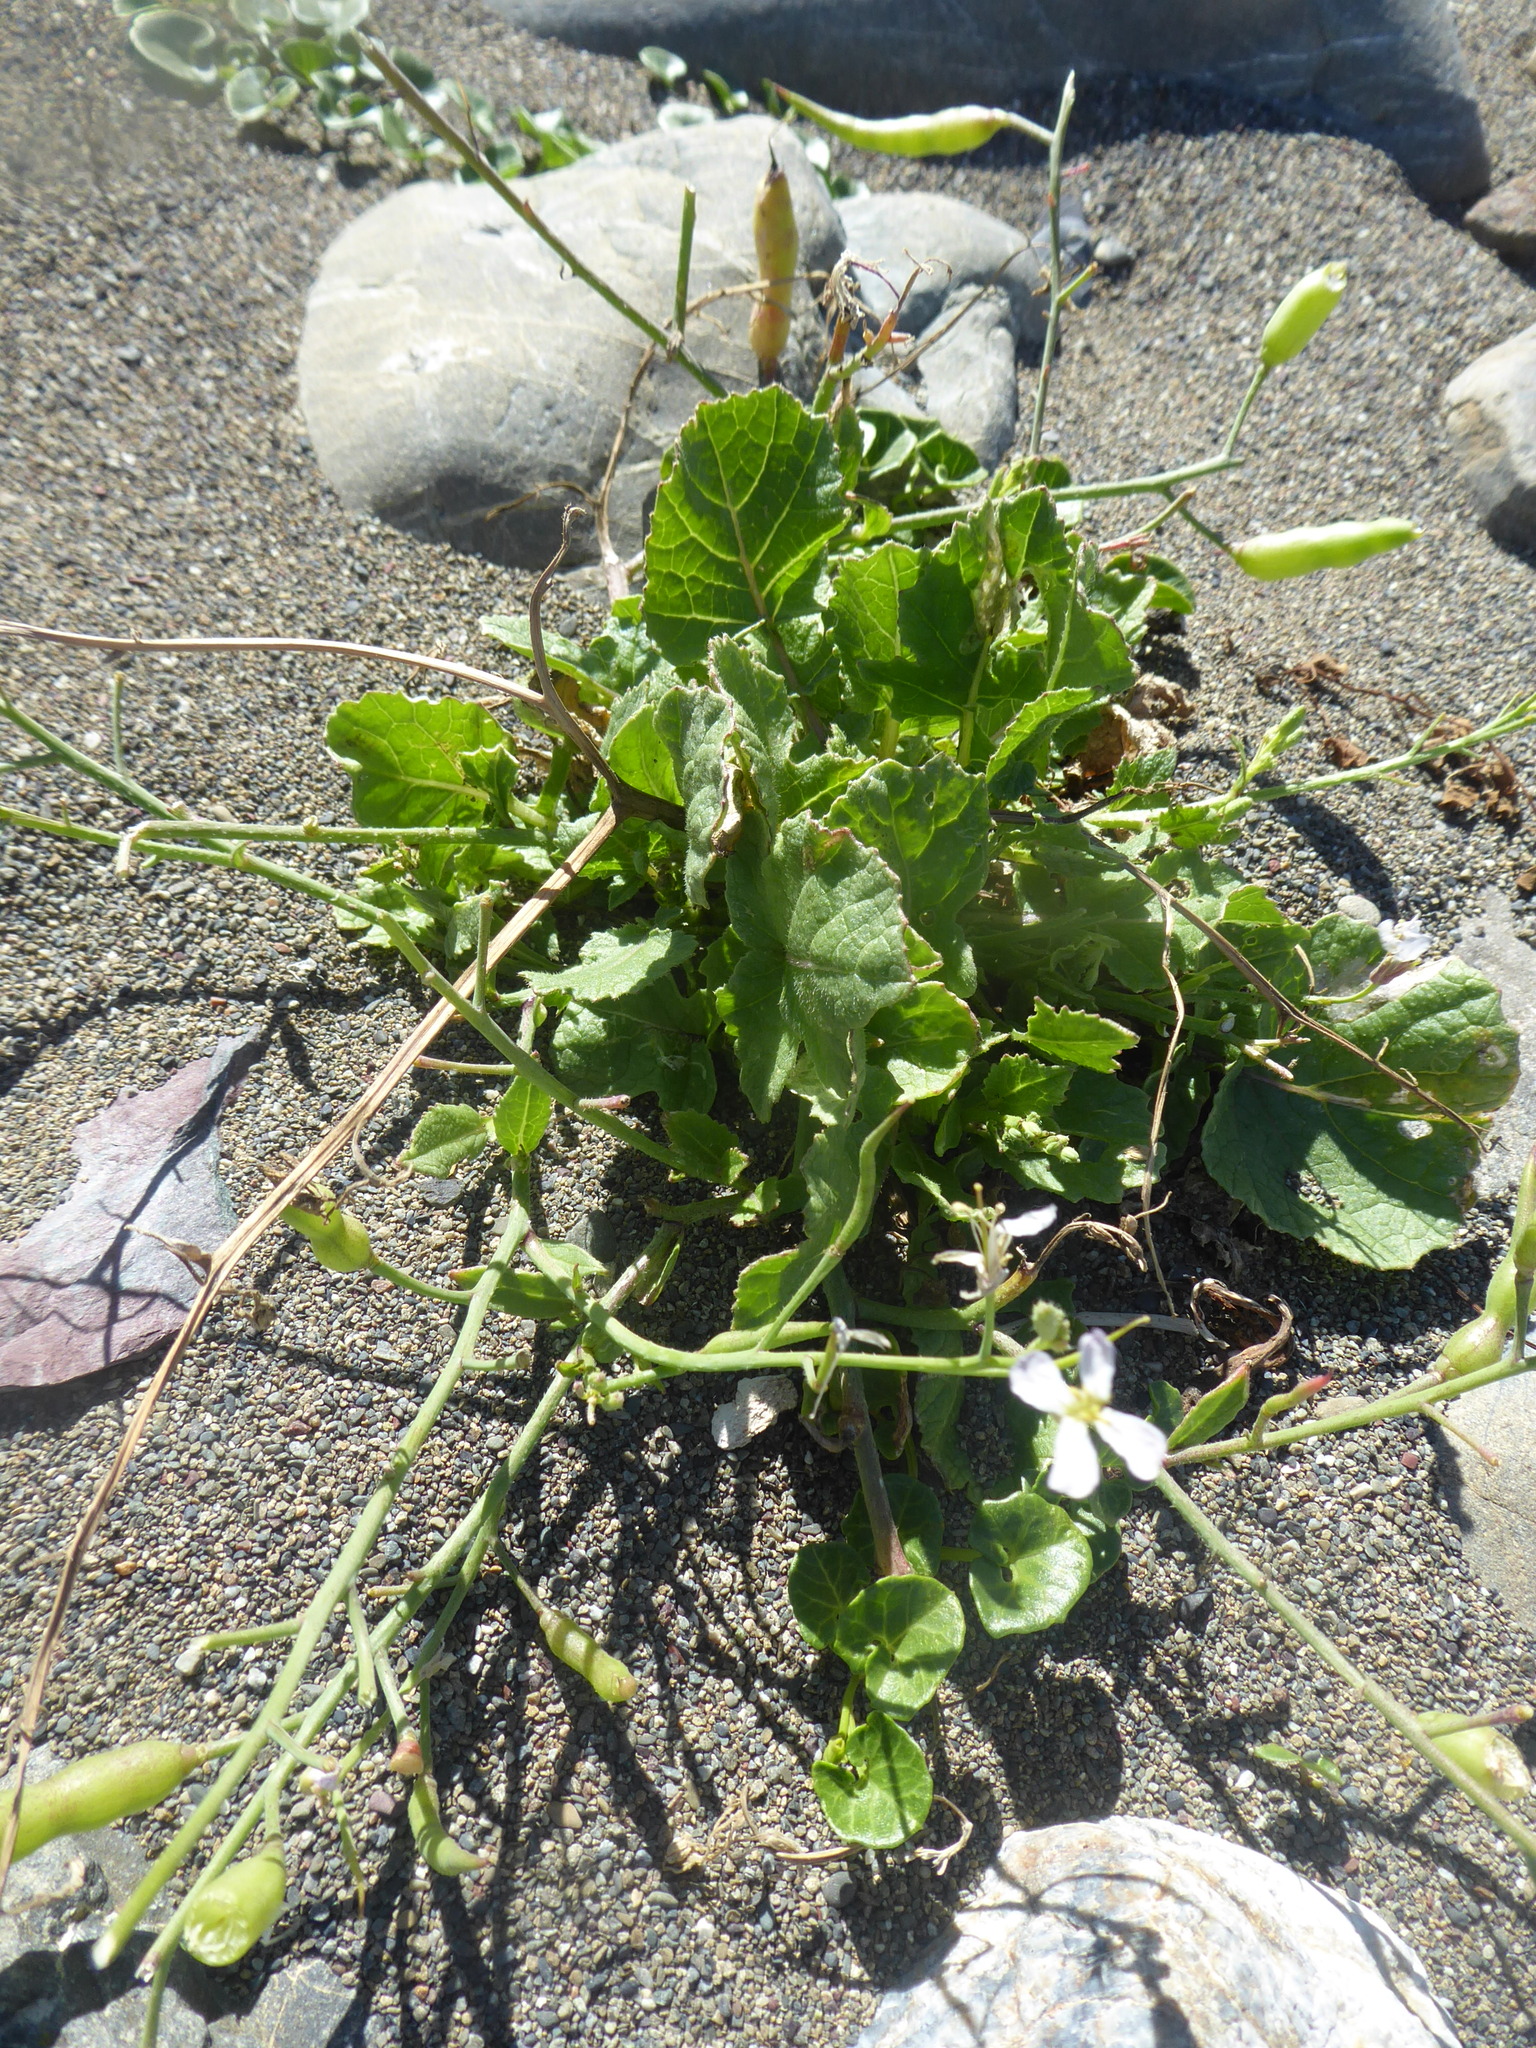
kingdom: Plantae
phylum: Tracheophyta
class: Magnoliopsida
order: Brassicales
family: Brassicaceae
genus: Raphanus
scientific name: Raphanus sativus
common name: Cultivated radish
